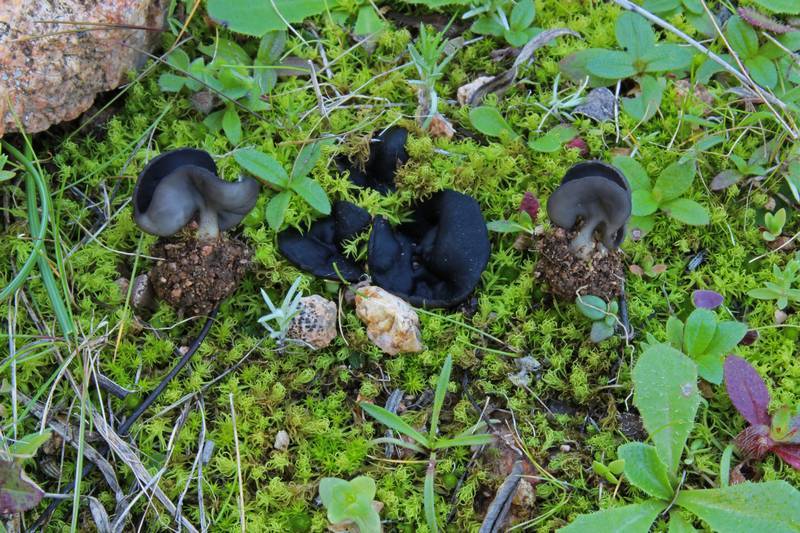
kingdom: Fungi
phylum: Ascomycota
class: Pezizomycetes
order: Pezizales
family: Helvellaceae
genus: Helvella
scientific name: Helvella helvellula
